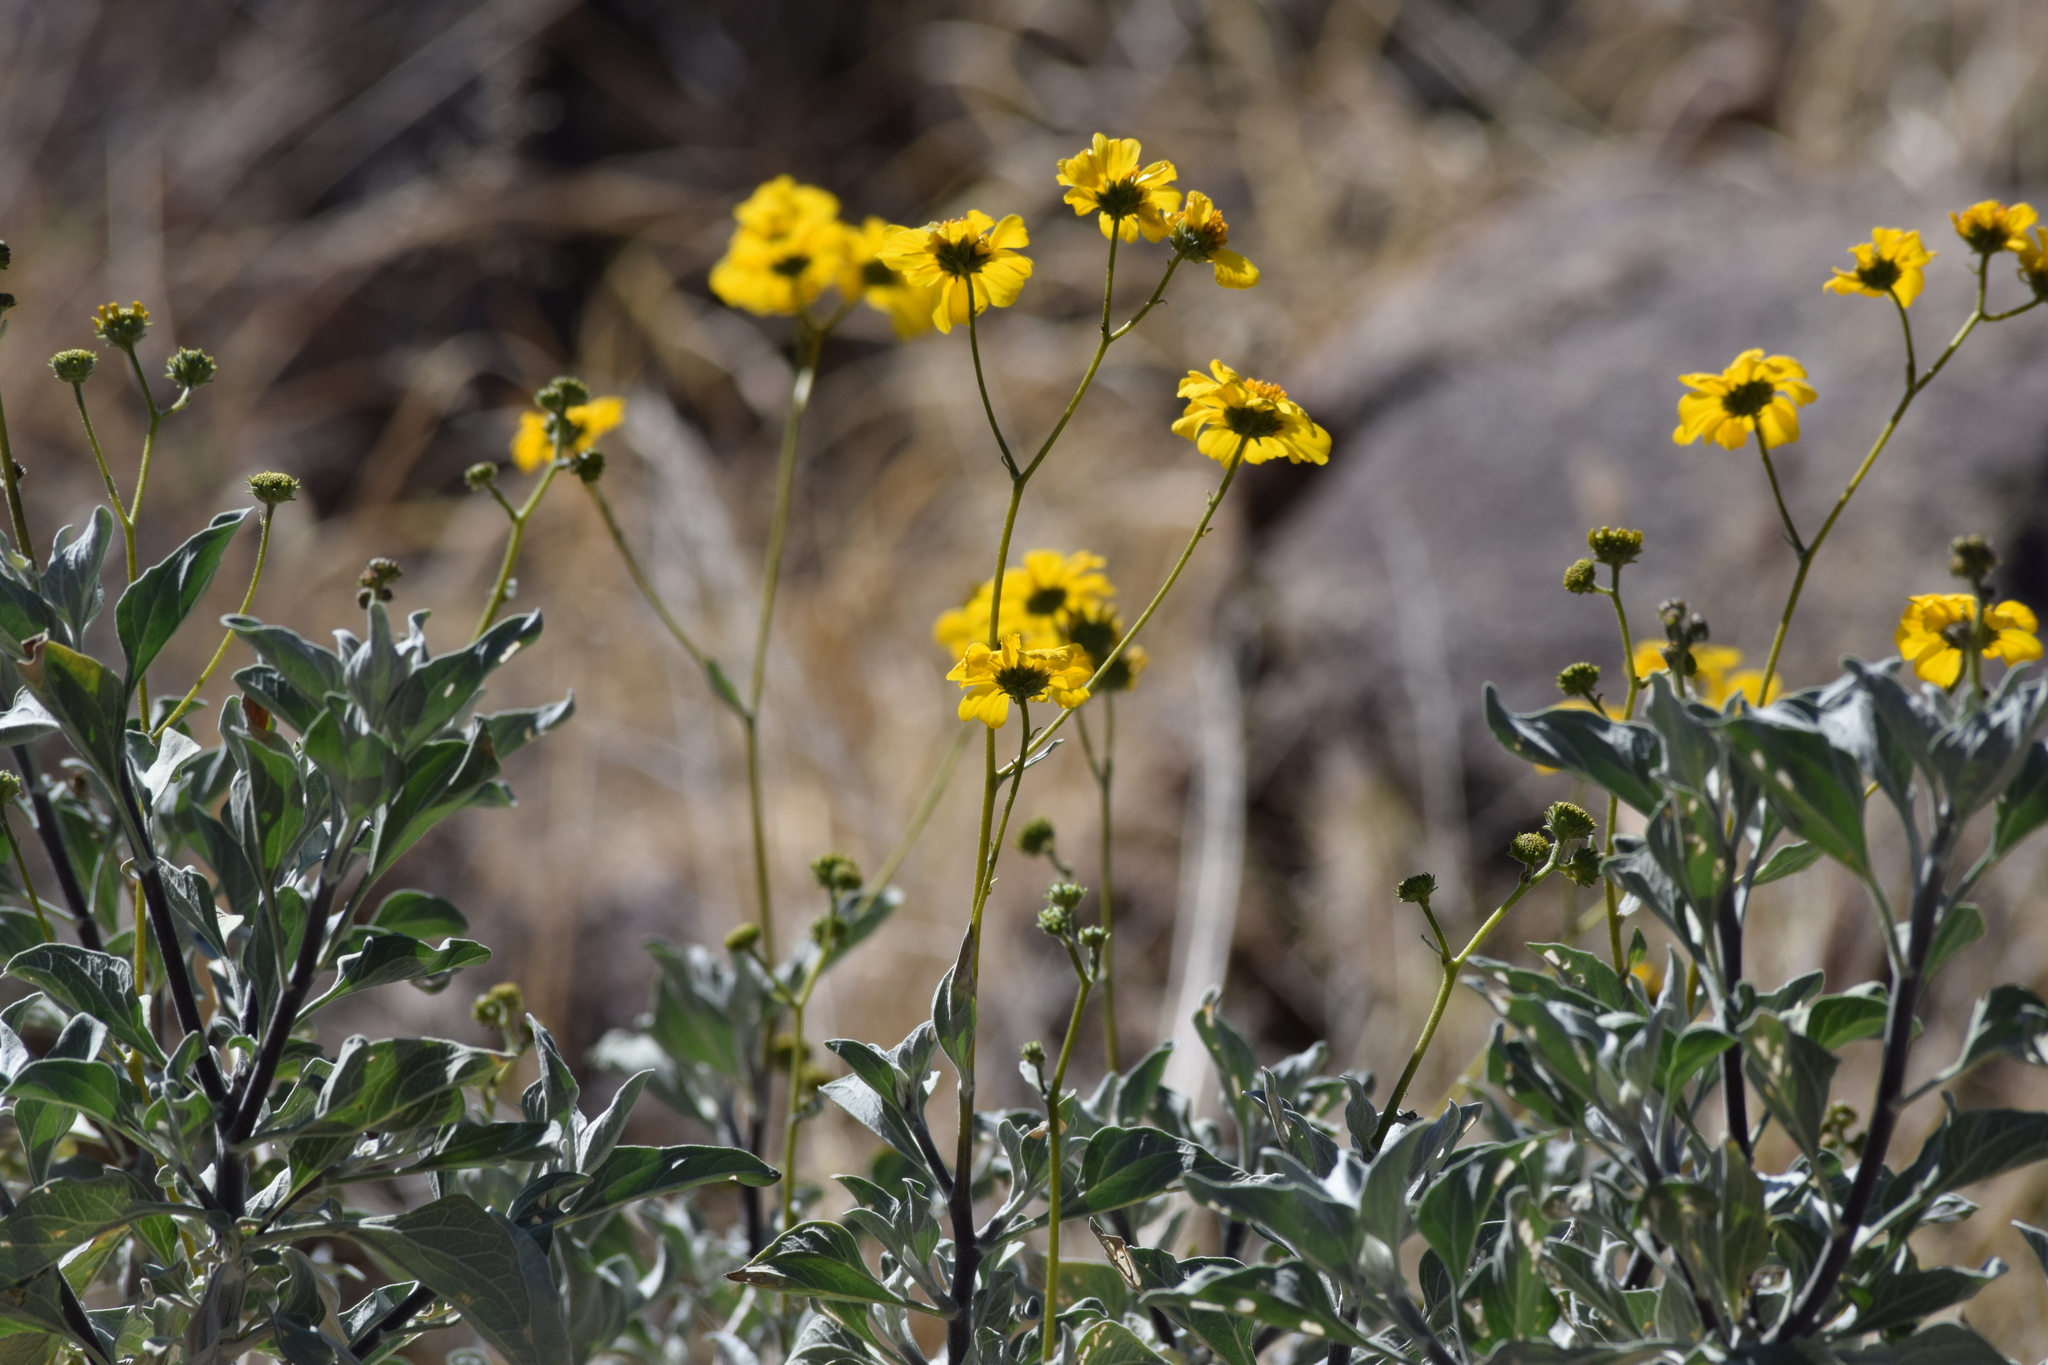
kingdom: Plantae
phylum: Tracheophyta
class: Magnoliopsida
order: Asterales
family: Asteraceae
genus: Encelia
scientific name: Encelia farinosa
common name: Brittlebush
